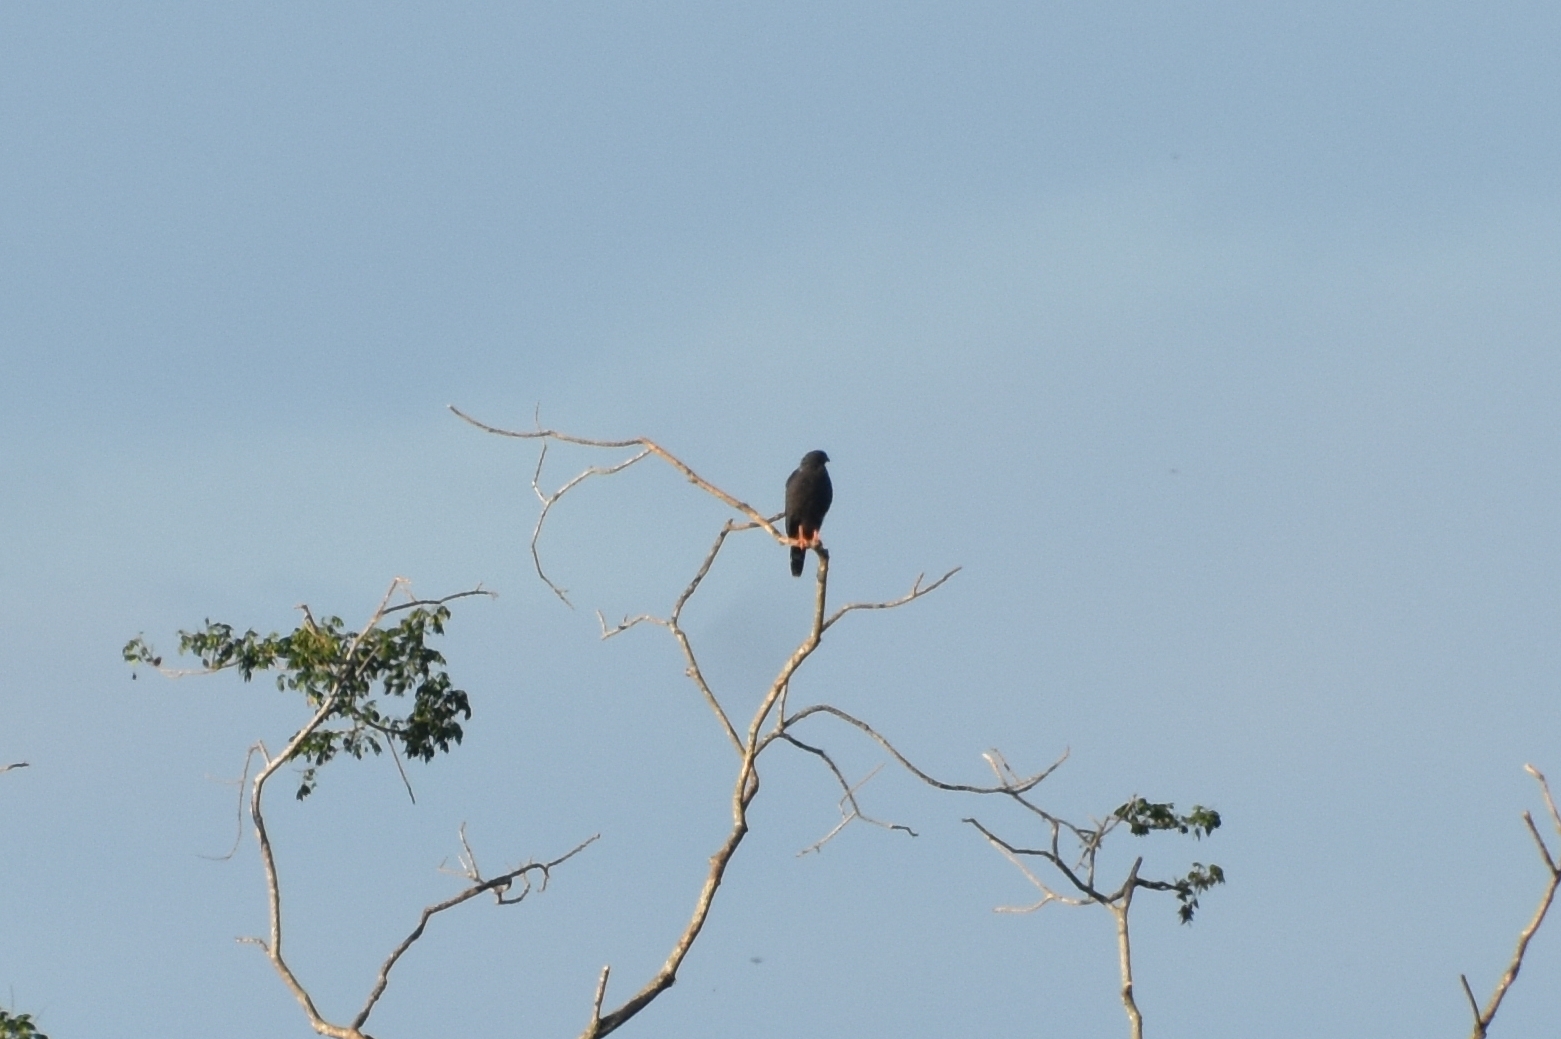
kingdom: Animalia
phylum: Chordata
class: Aves
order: Accipitriformes
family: Accipitridae
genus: Geranospiza
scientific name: Geranospiza caerulescens
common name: Crane hawk
